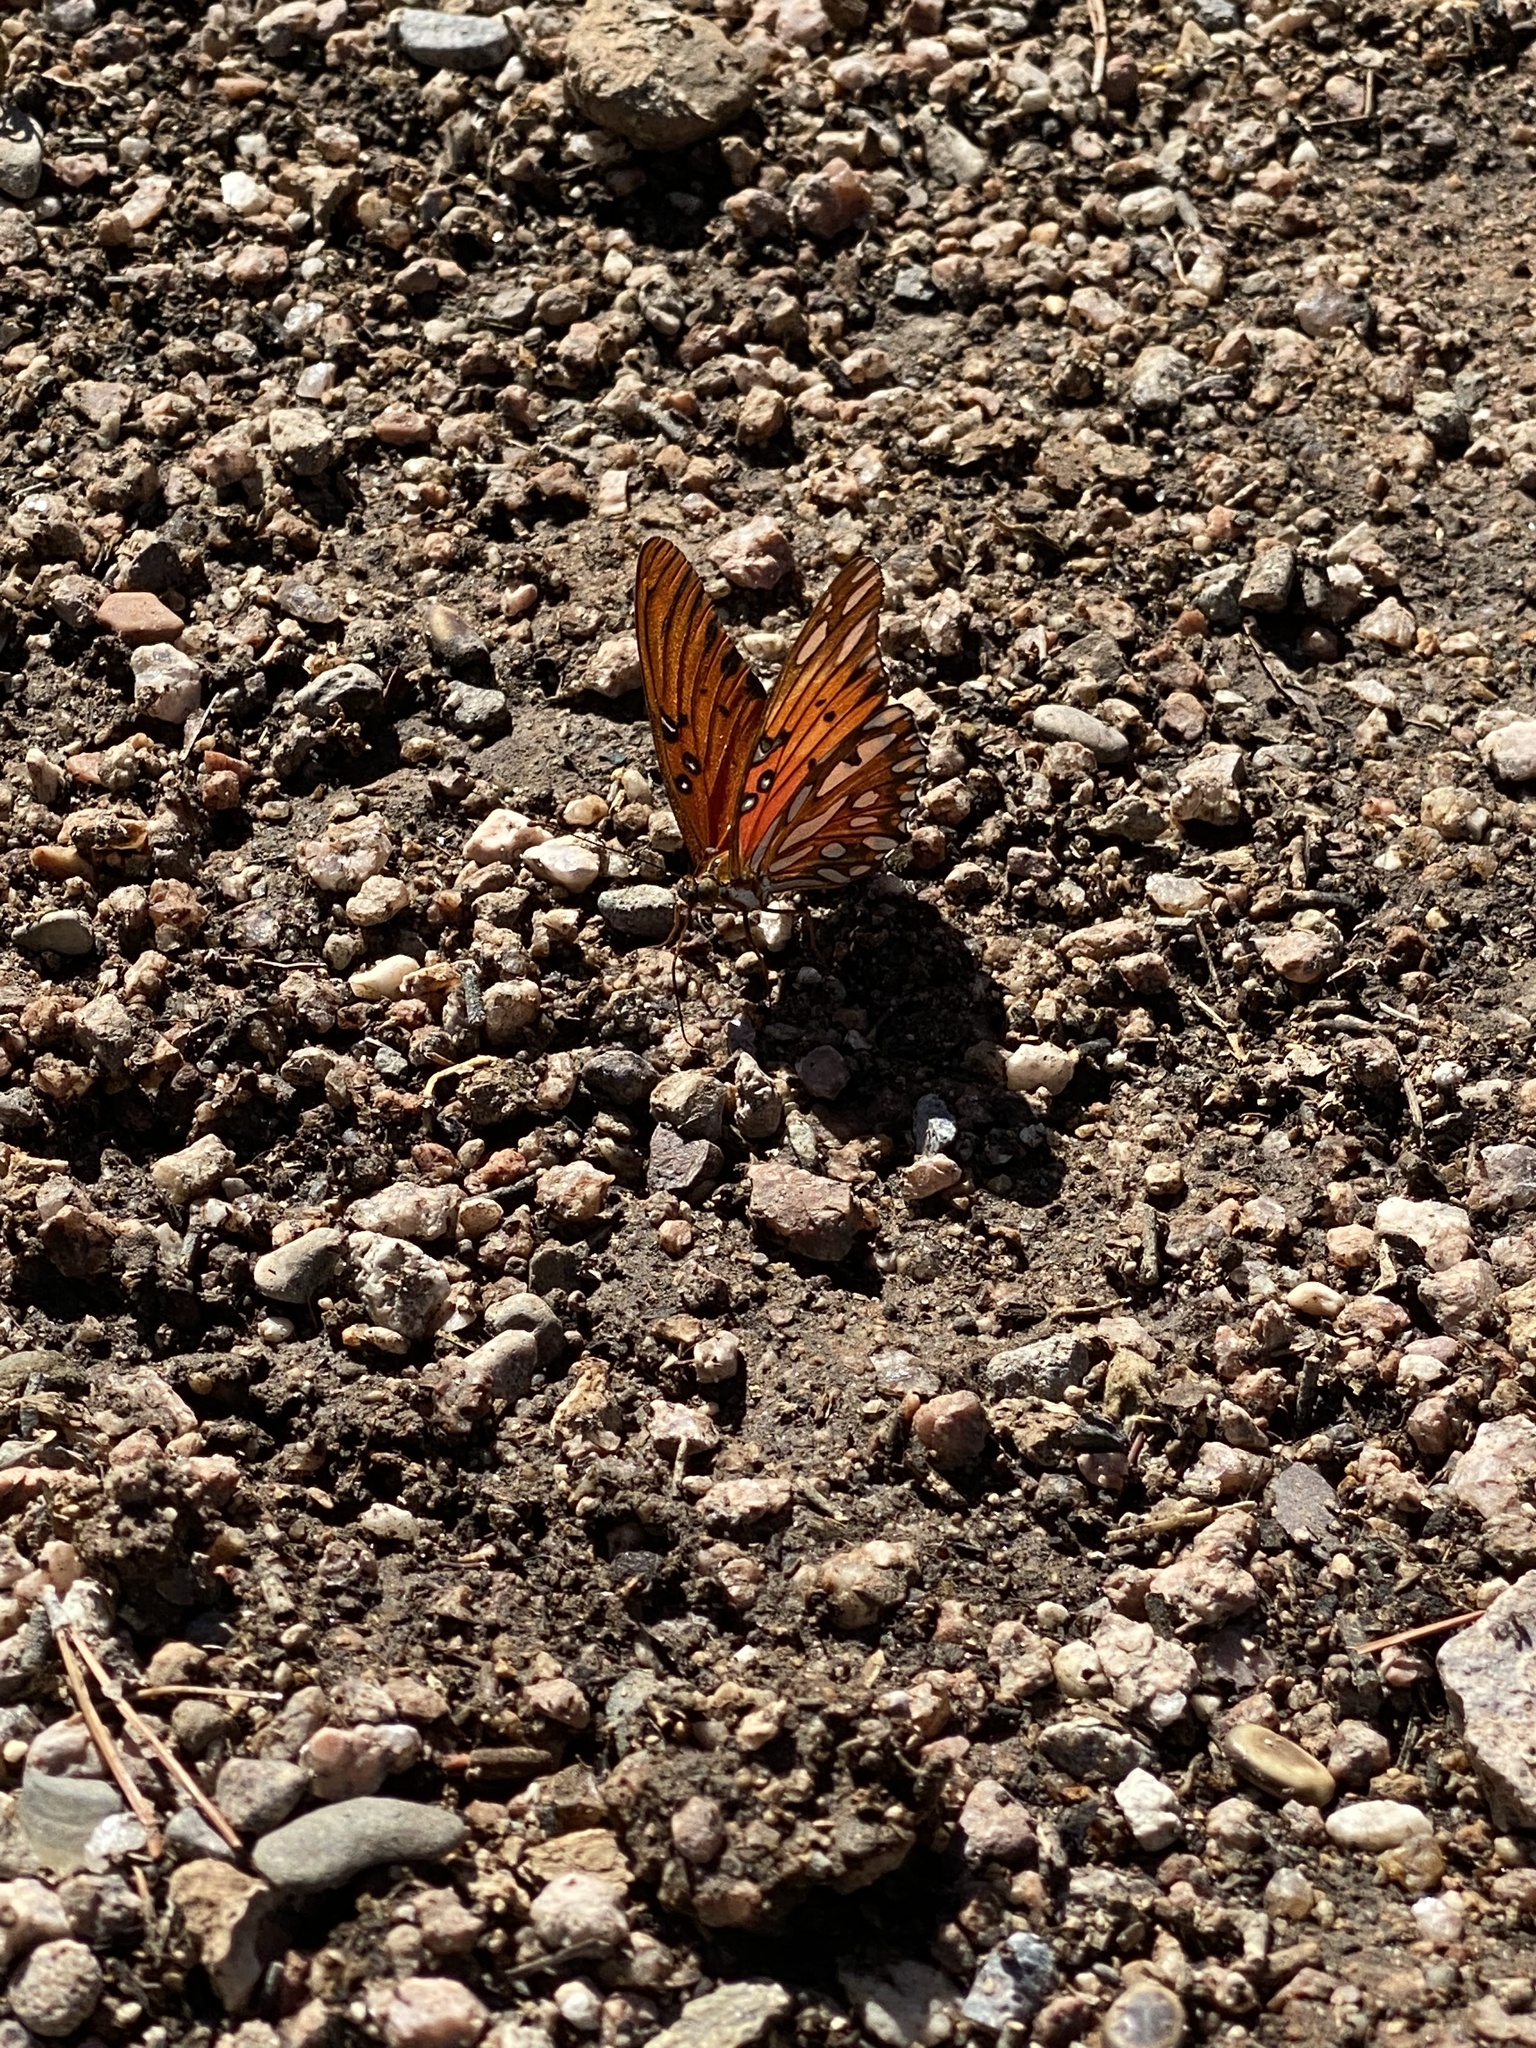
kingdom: Animalia
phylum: Arthropoda
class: Insecta
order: Lepidoptera
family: Nymphalidae
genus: Dione
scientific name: Dione vanillae
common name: Gulf fritillary
